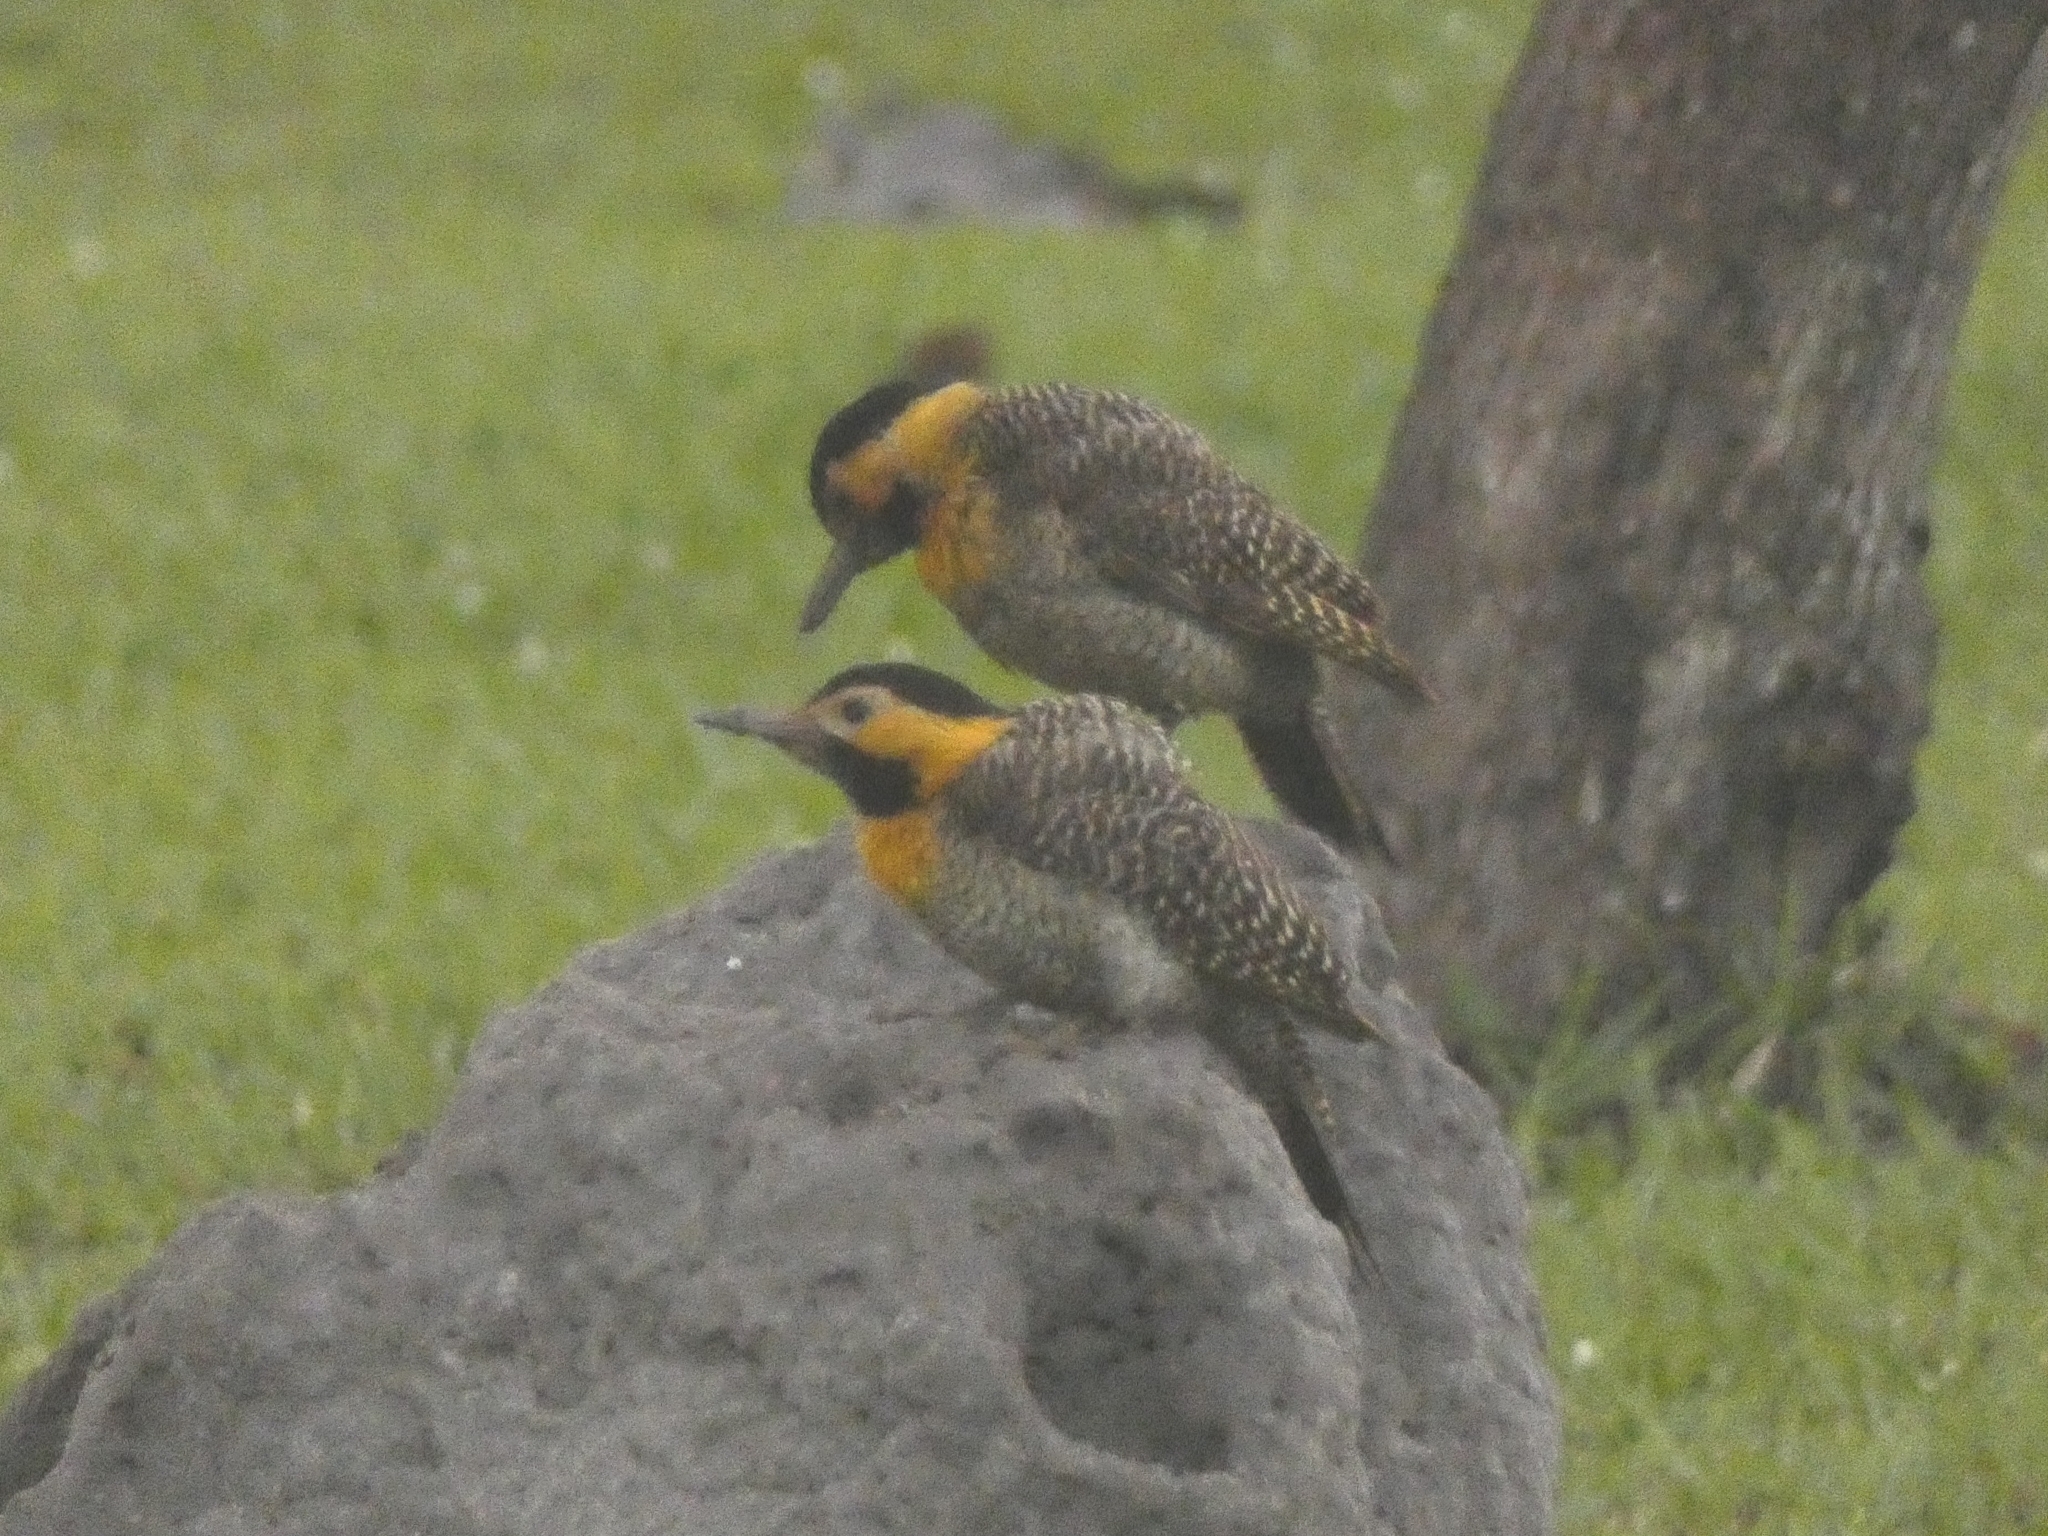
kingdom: Animalia
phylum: Chordata
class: Aves
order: Piciformes
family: Picidae
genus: Colaptes
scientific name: Colaptes campestris
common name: Campo flicker
